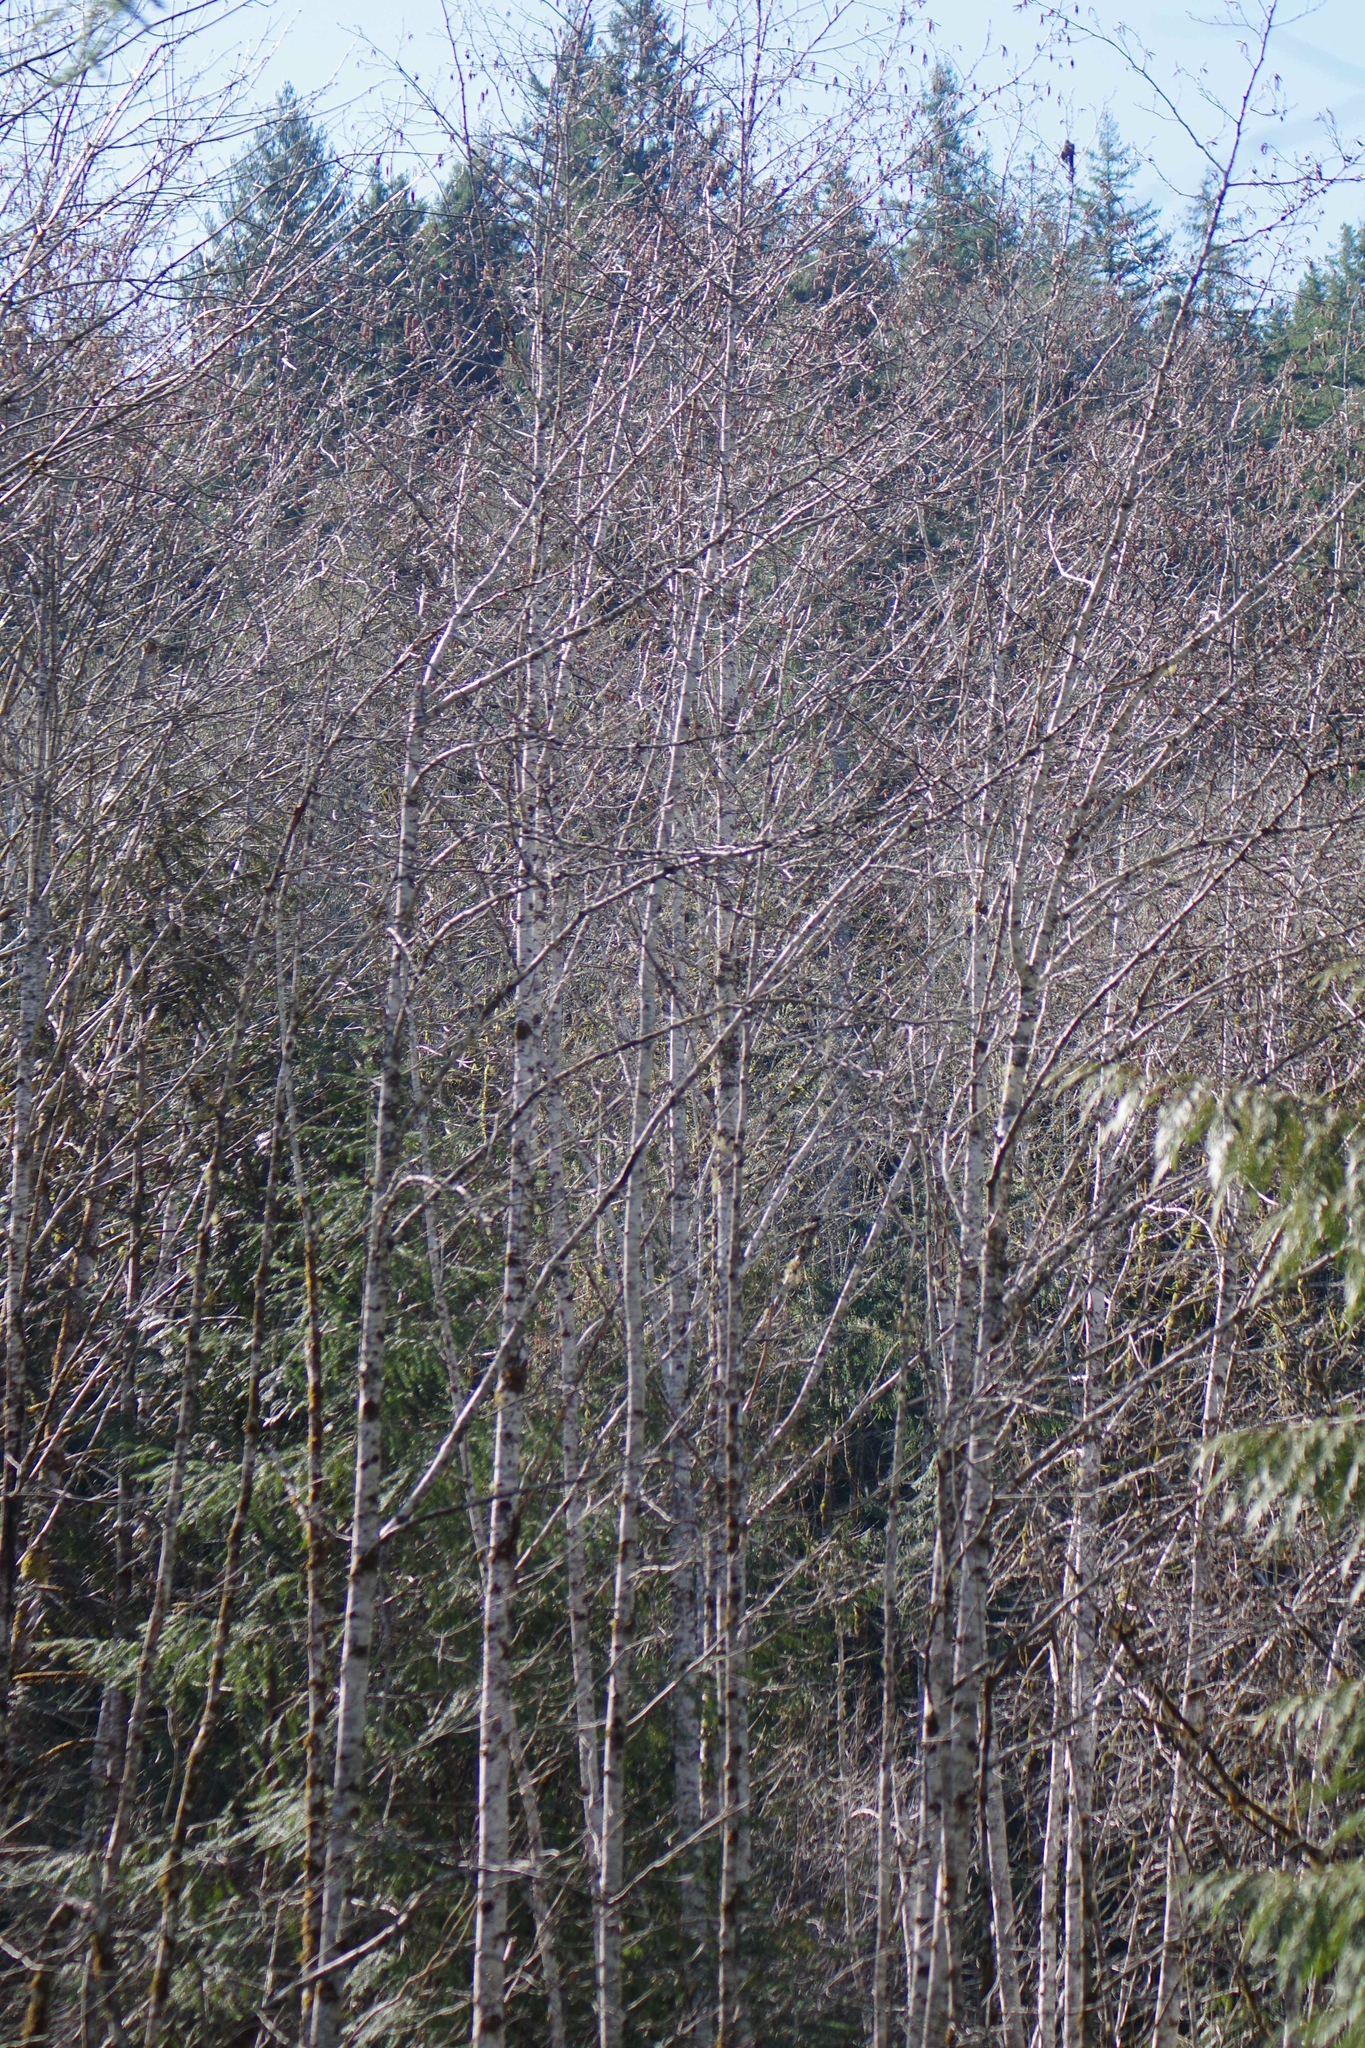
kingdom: Plantae
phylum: Tracheophyta
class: Magnoliopsida
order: Fagales
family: Betulaceae
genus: Alnus
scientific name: Alnus rubra
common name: Red alder
